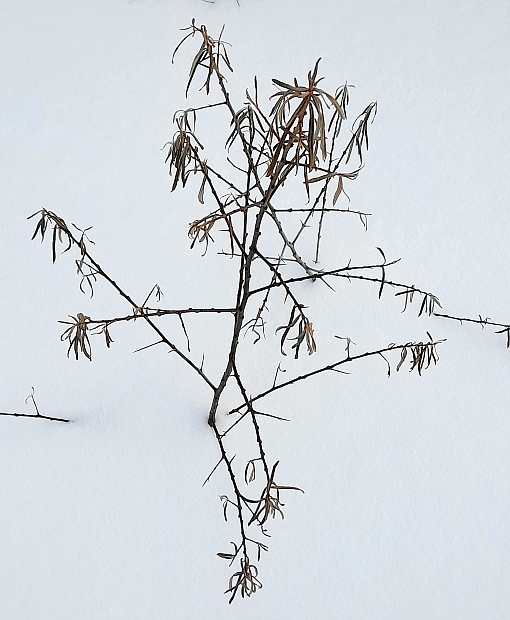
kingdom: Plantae
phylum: Tracheophyta
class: Magnoliopsida
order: Rosales
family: Elaeagnaceae
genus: Hippophae
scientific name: Hippophae rhamnoides
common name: Sea-buckthorn
